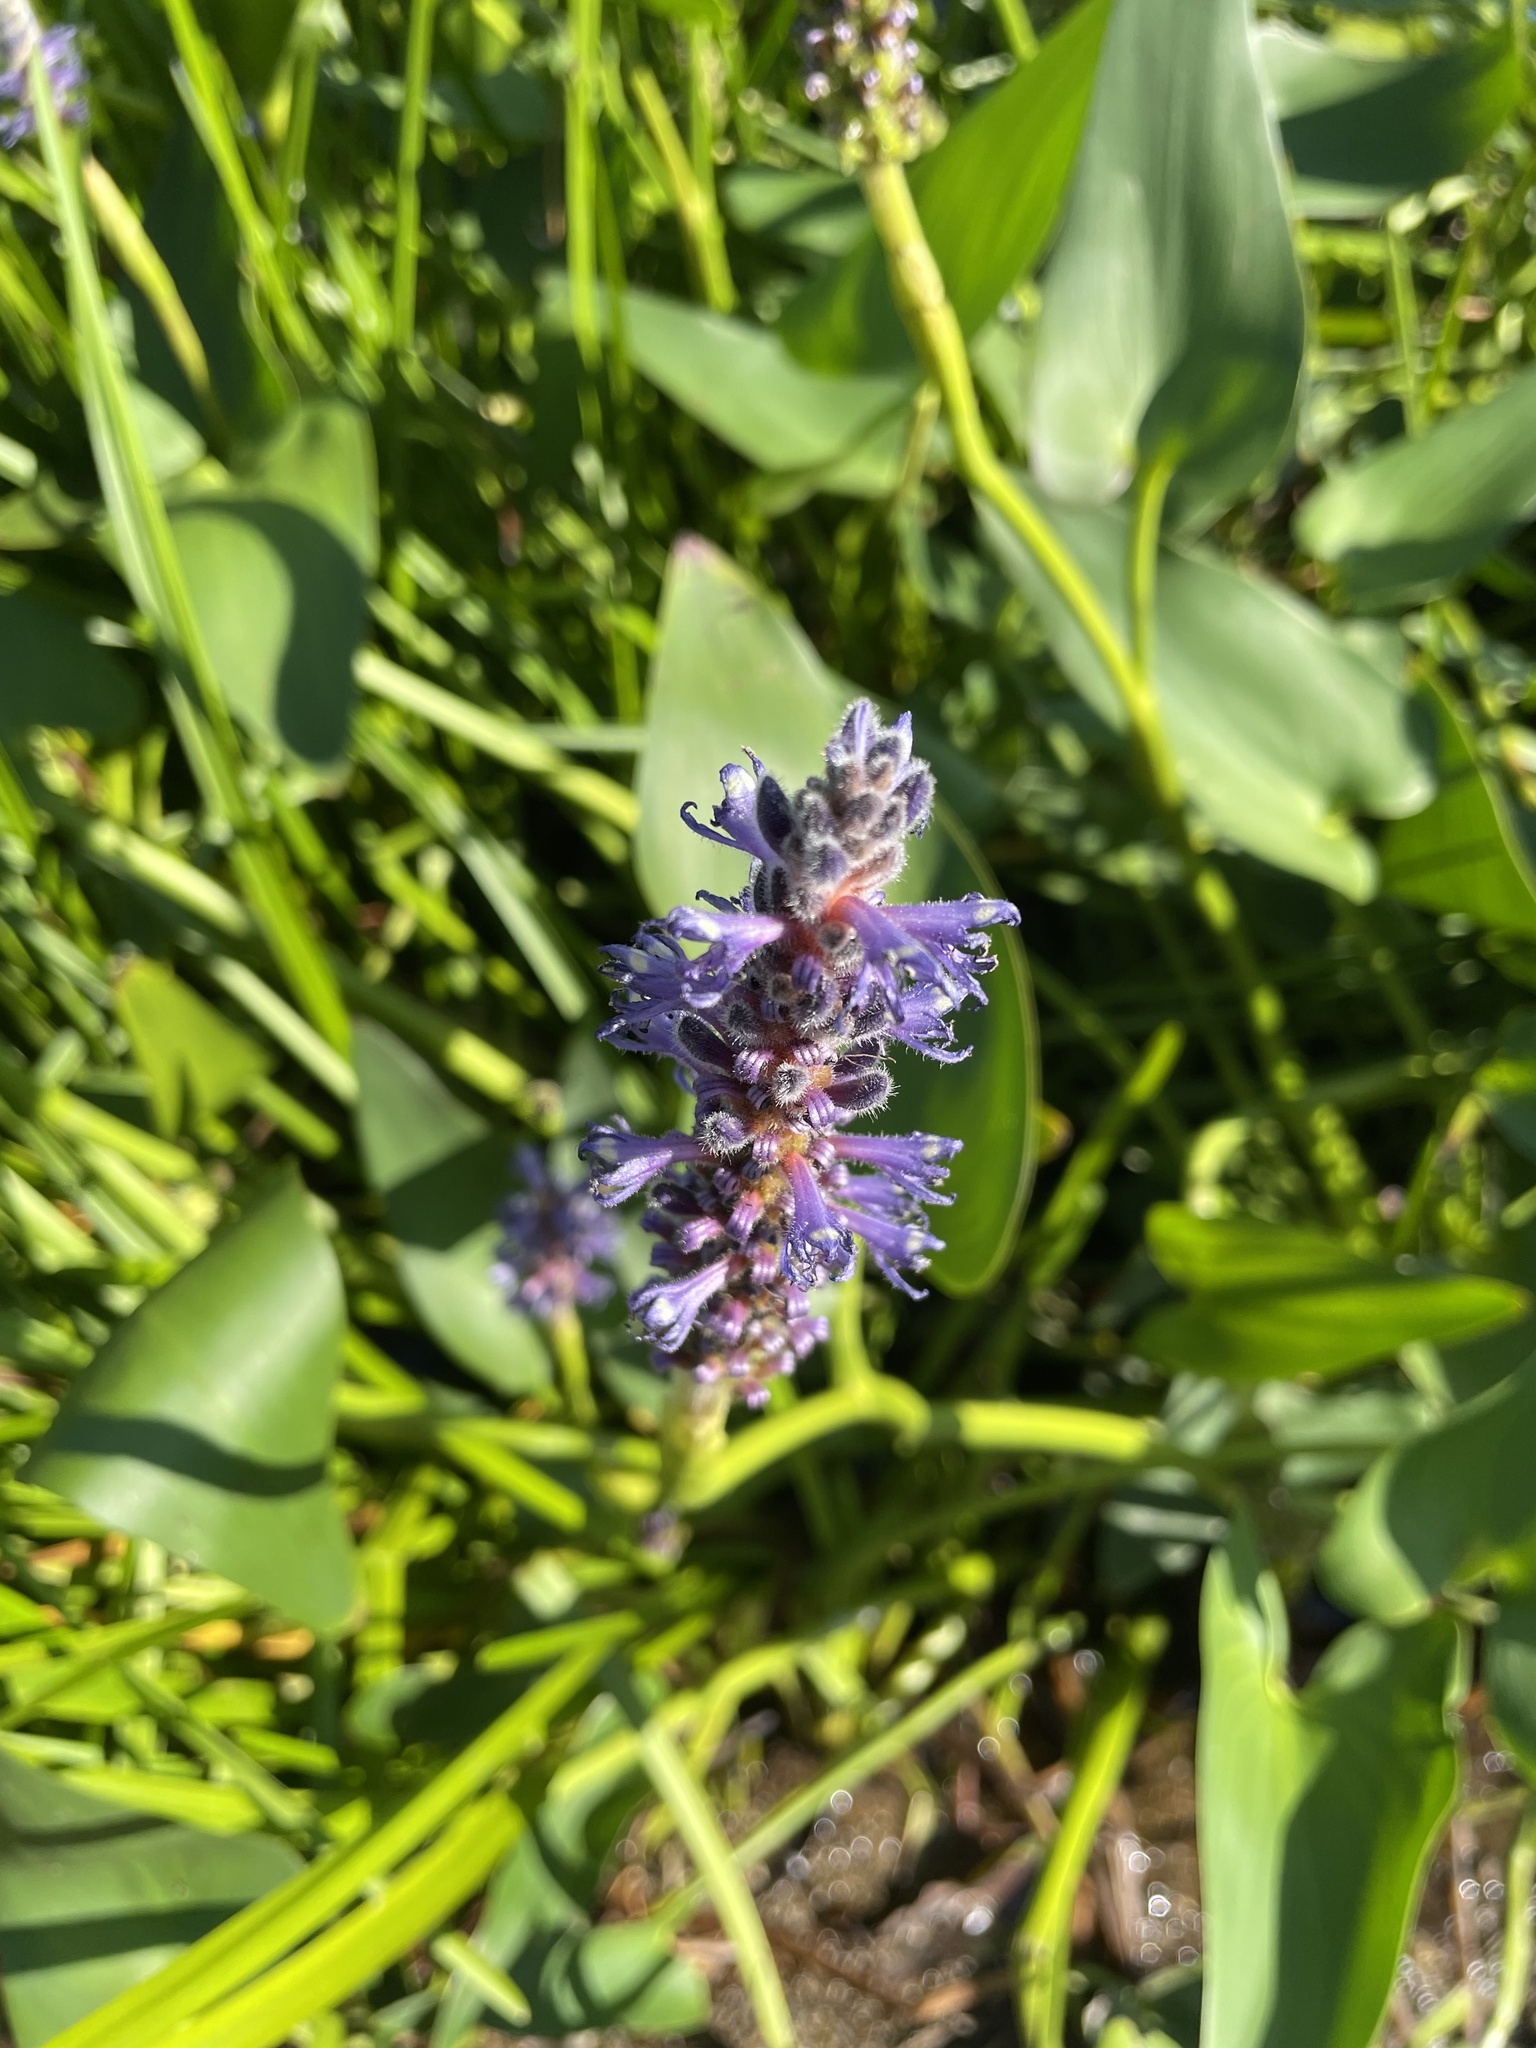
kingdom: Plantae
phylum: Tracheophyta
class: Liliopsida
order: Commelinales
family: Pontederiaceae
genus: Pontederia
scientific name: Pontederia cordata
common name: Pickerelweed
